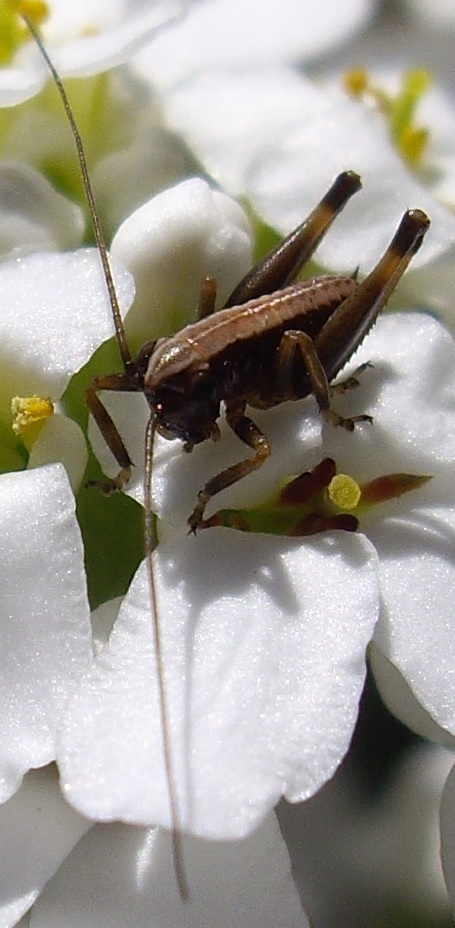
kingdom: Animalia
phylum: Arthropoda
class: Insecta
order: Orthoptera
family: Tettigoniidae
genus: Pholidoptera
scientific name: Pholidoptera griseoaptera
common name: Dark bush-cricket
